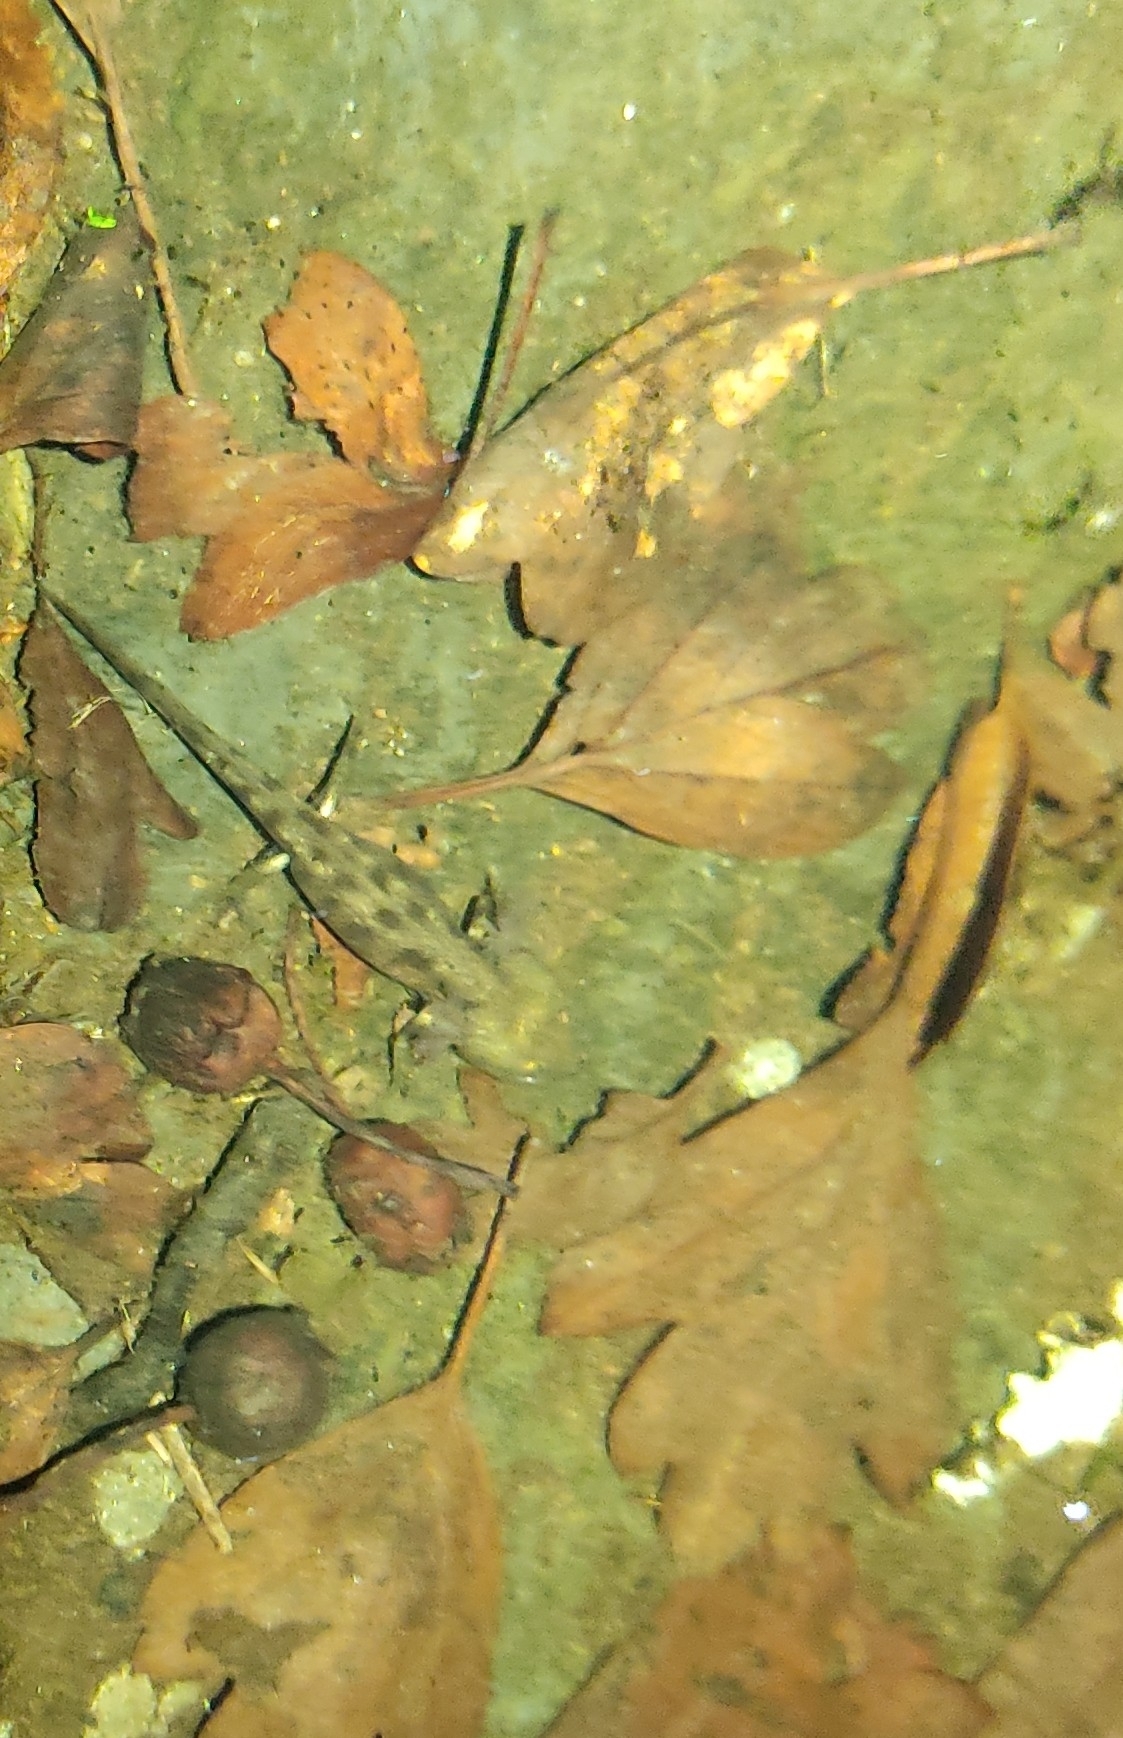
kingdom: Animalia
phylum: Chordata
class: Amphibia
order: Caudata
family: Salamandridae
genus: Salamandra
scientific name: Salamandra salamandra
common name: Fire salamander
